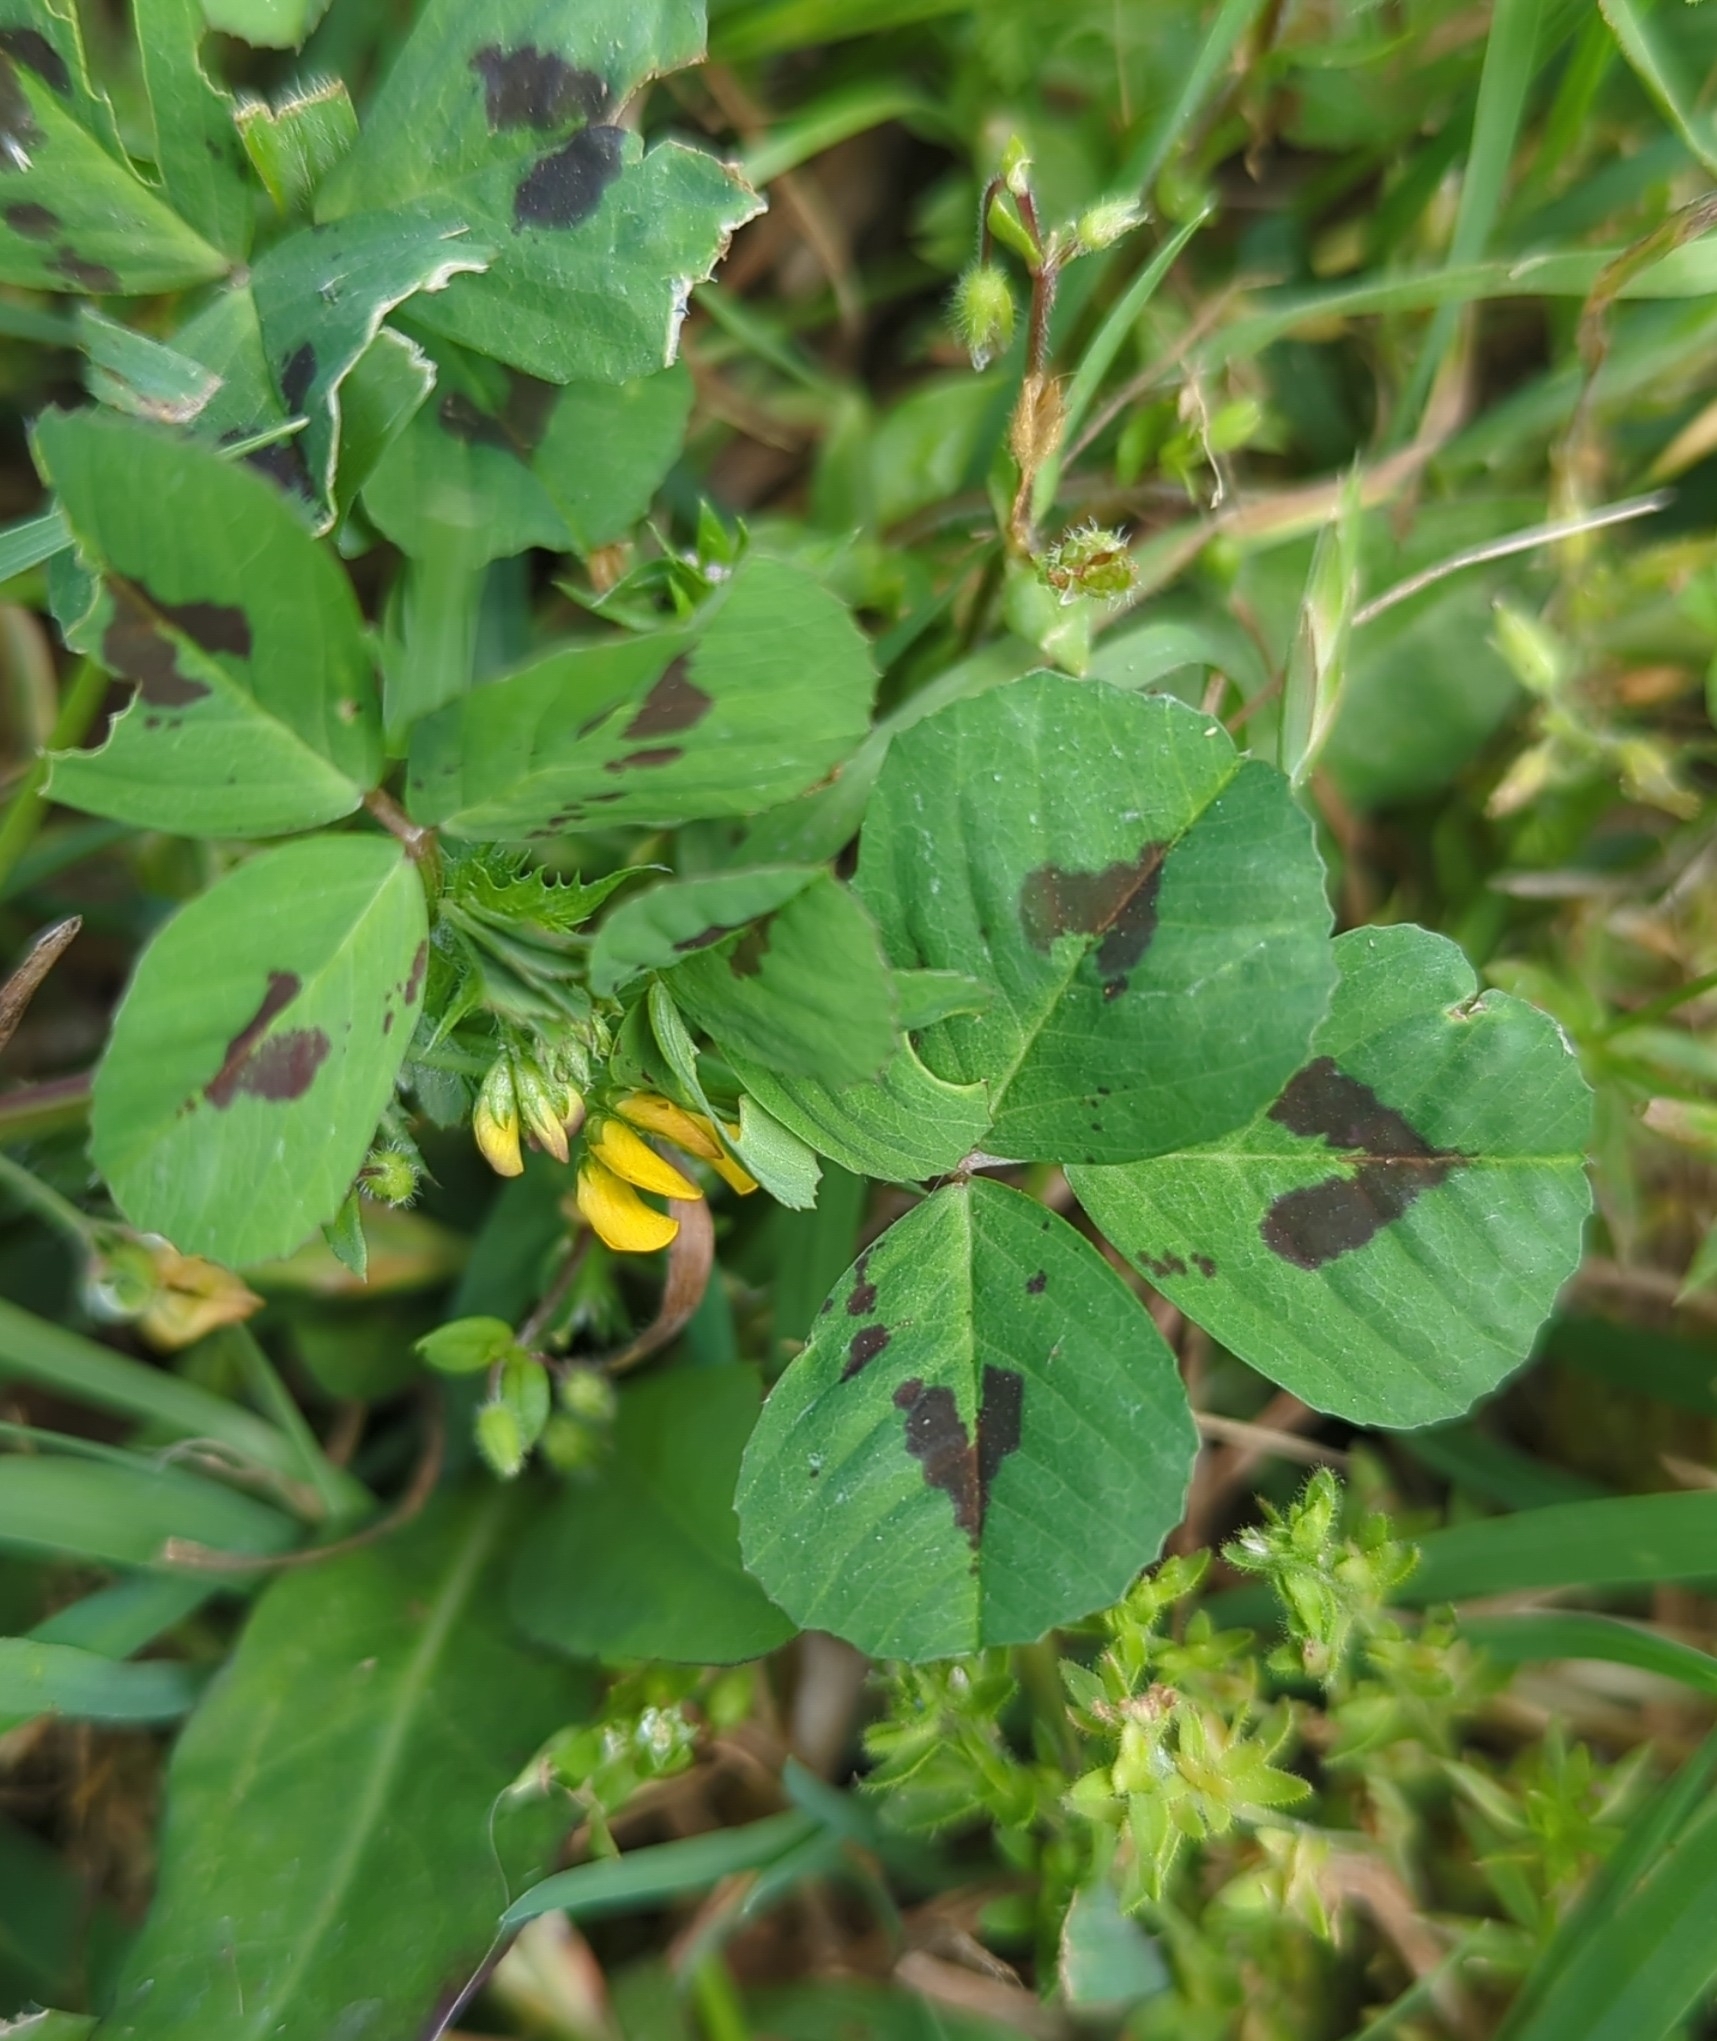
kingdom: Plantae
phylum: Tracheophyta
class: Magnoliopsida
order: Fabales
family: Fabaceae
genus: Medicago
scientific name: Medicago arabica
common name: Spotted medick
